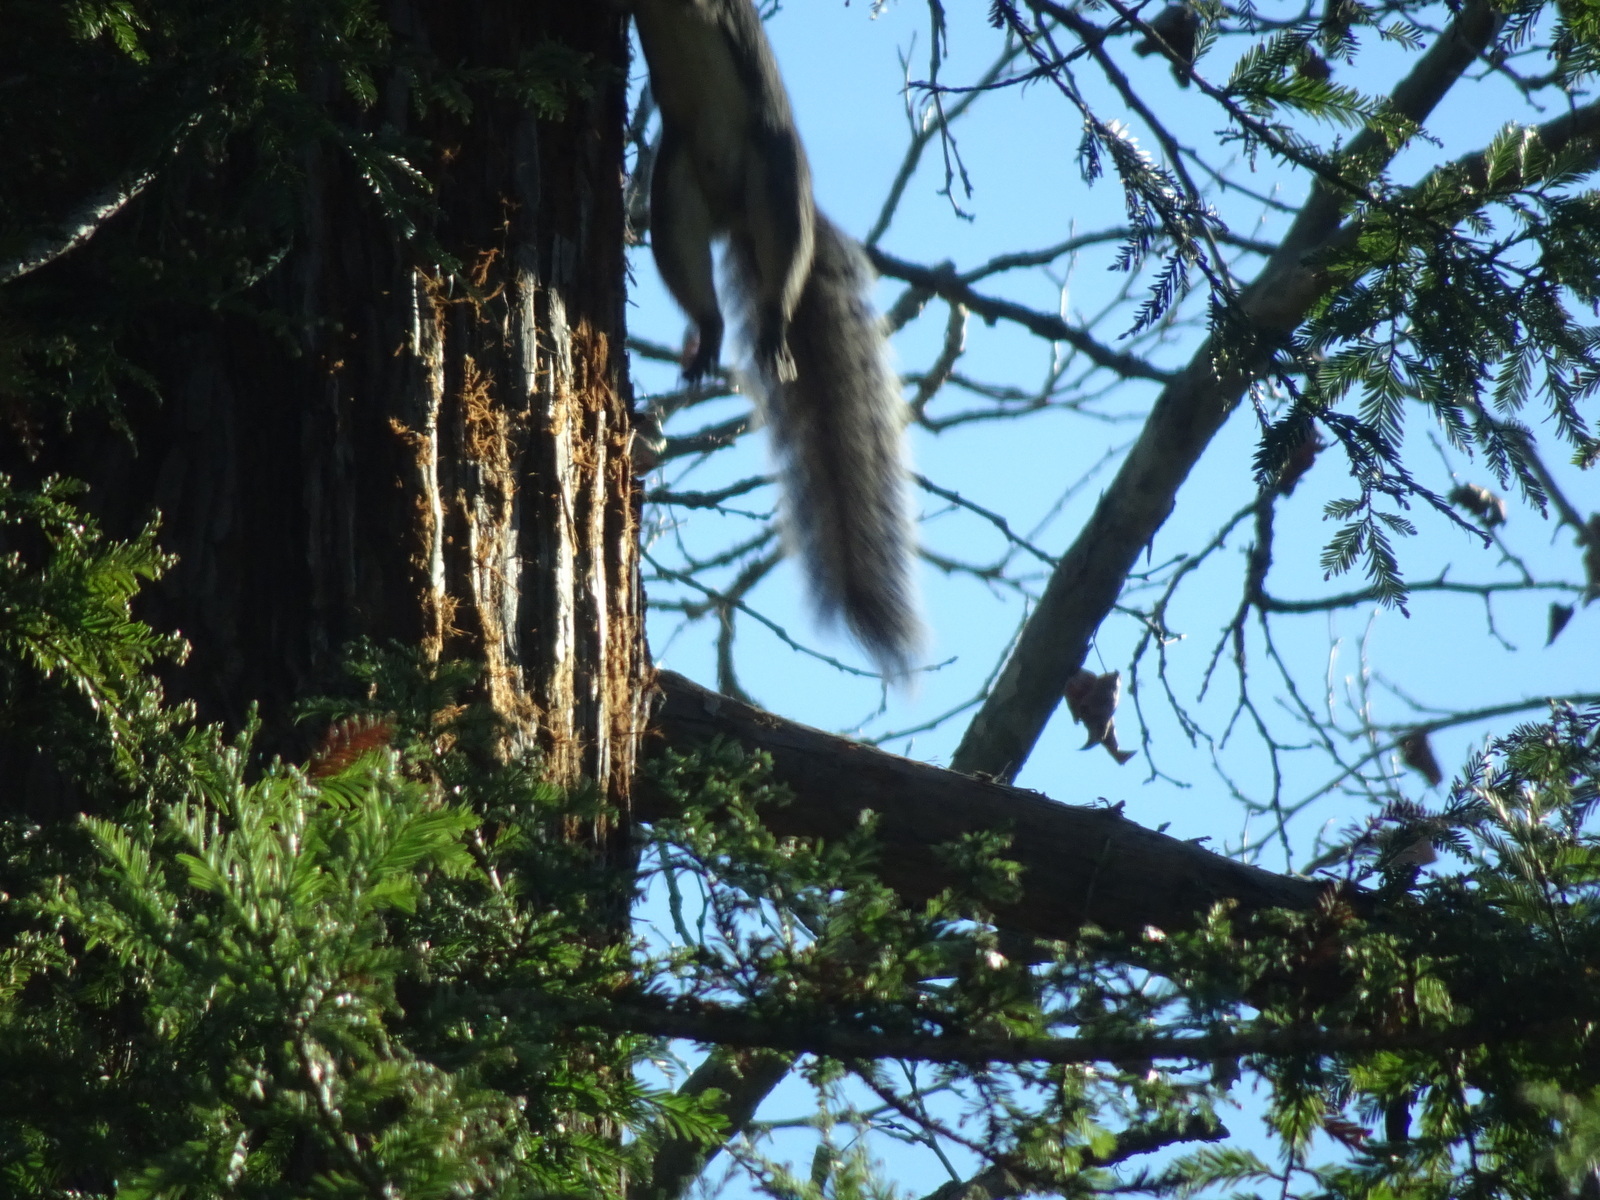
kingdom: Animalia
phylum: Chordata
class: Mammalia
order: Rodentia
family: Sciuridae
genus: Sciurus
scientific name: Sciurus griseus
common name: Western gray squirrel
